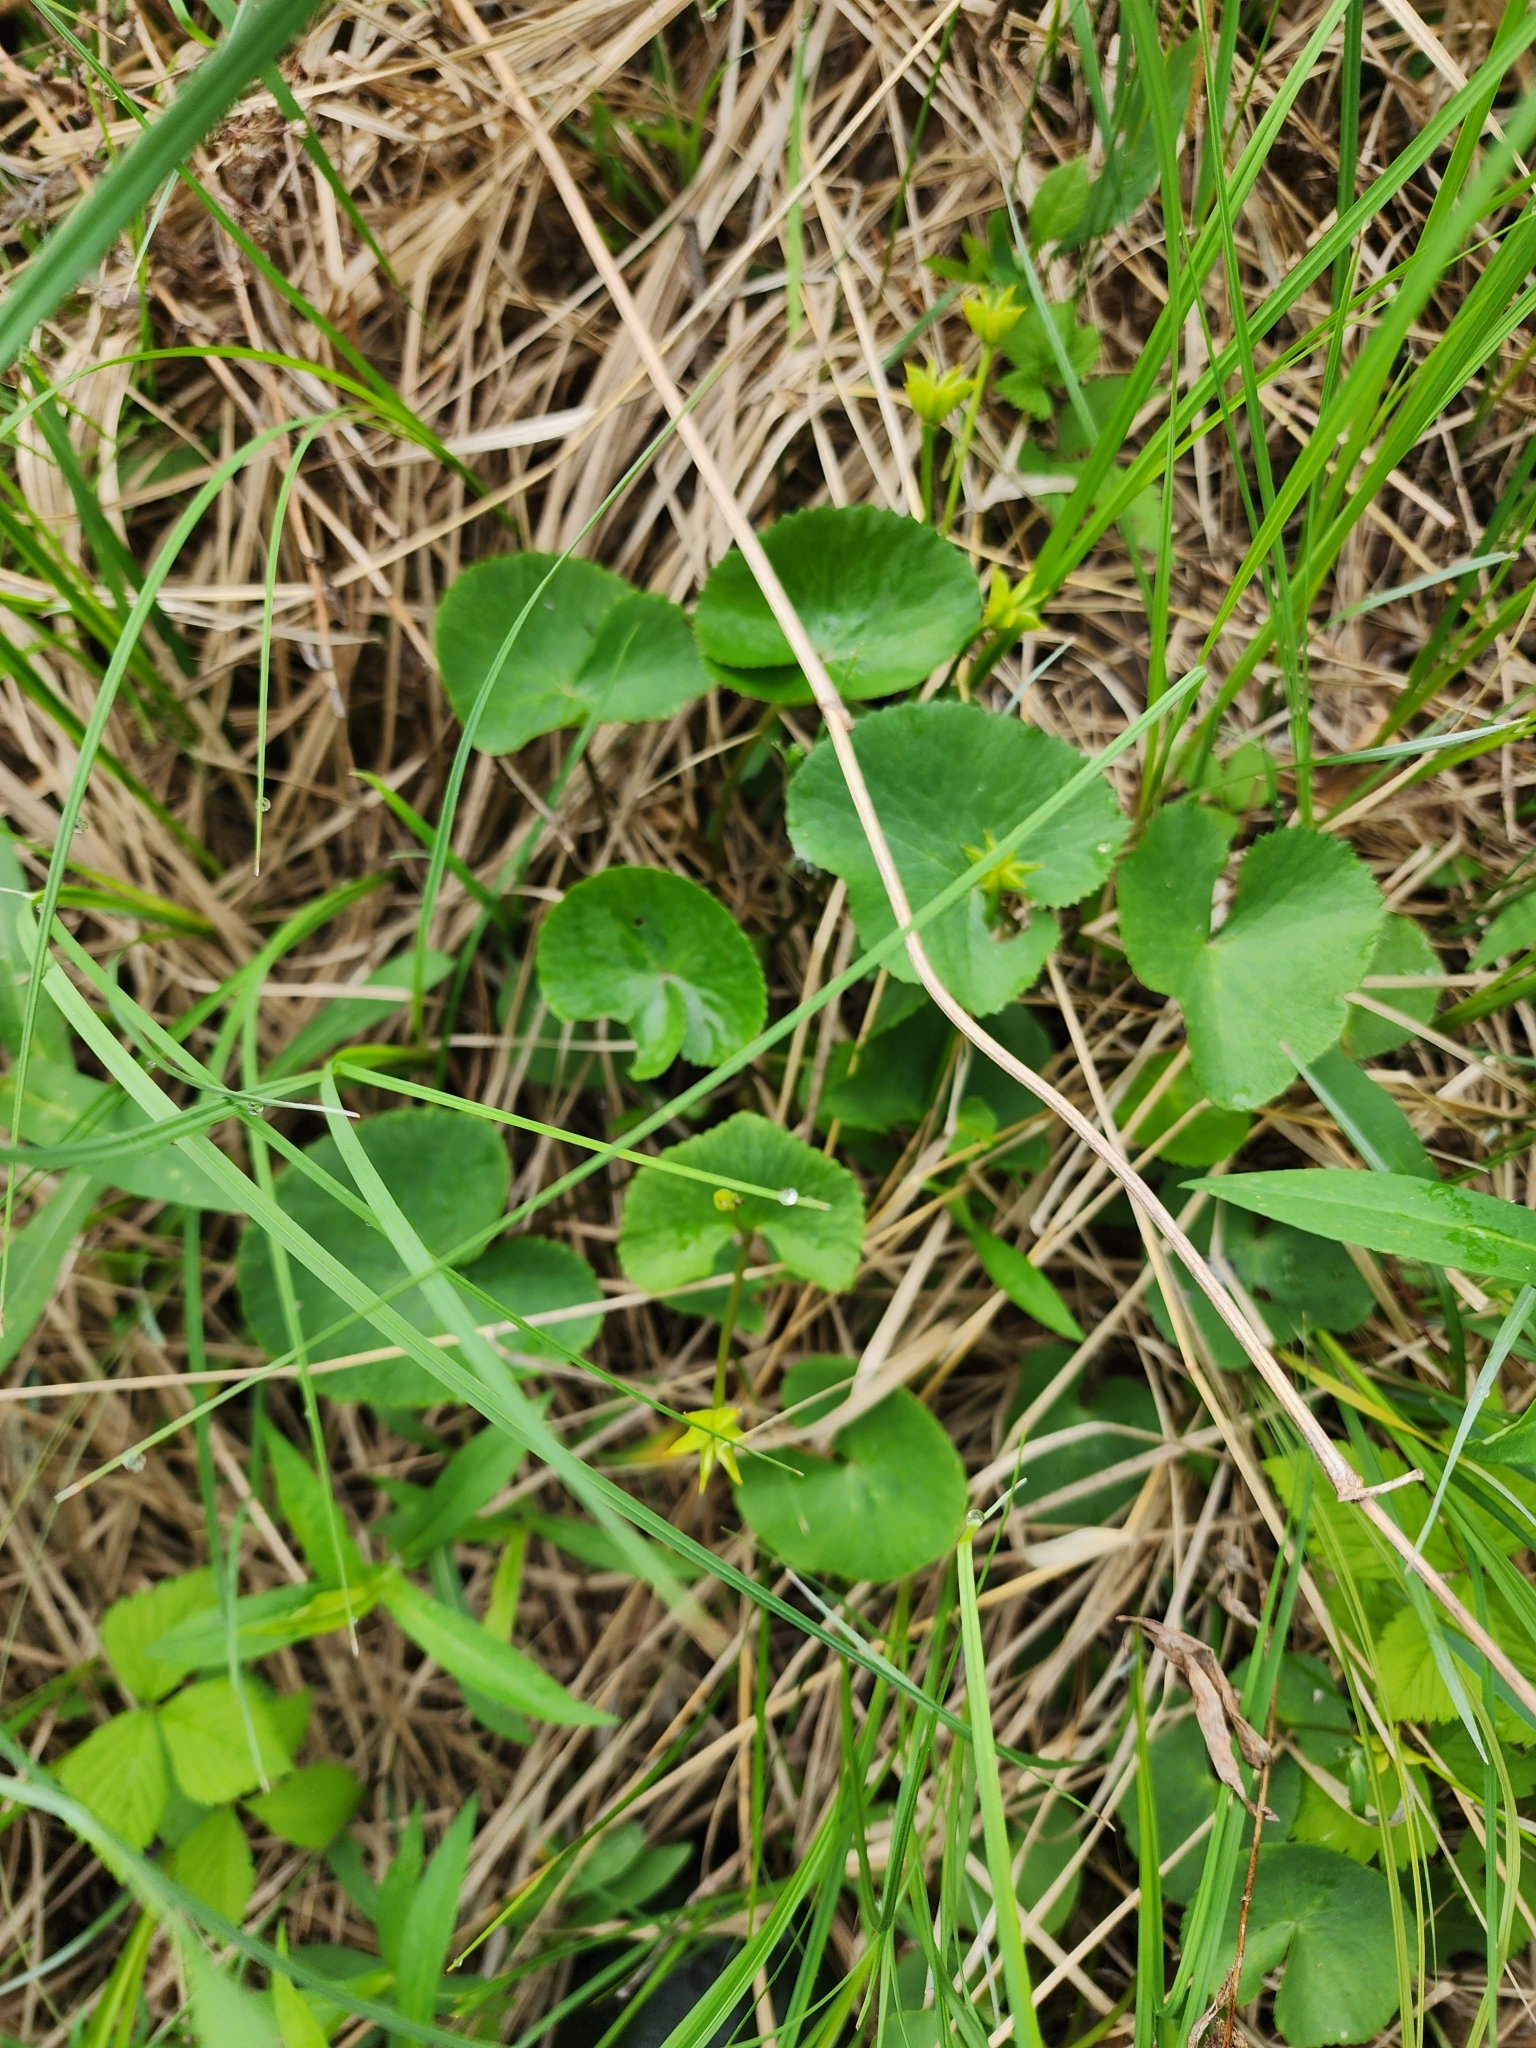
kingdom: Plantae
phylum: Tracheophyta
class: Magnoliopsida
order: Ranunculales
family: Ranunculaceae
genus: Caltha
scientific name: Caltha palustris
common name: Marsh marigold
